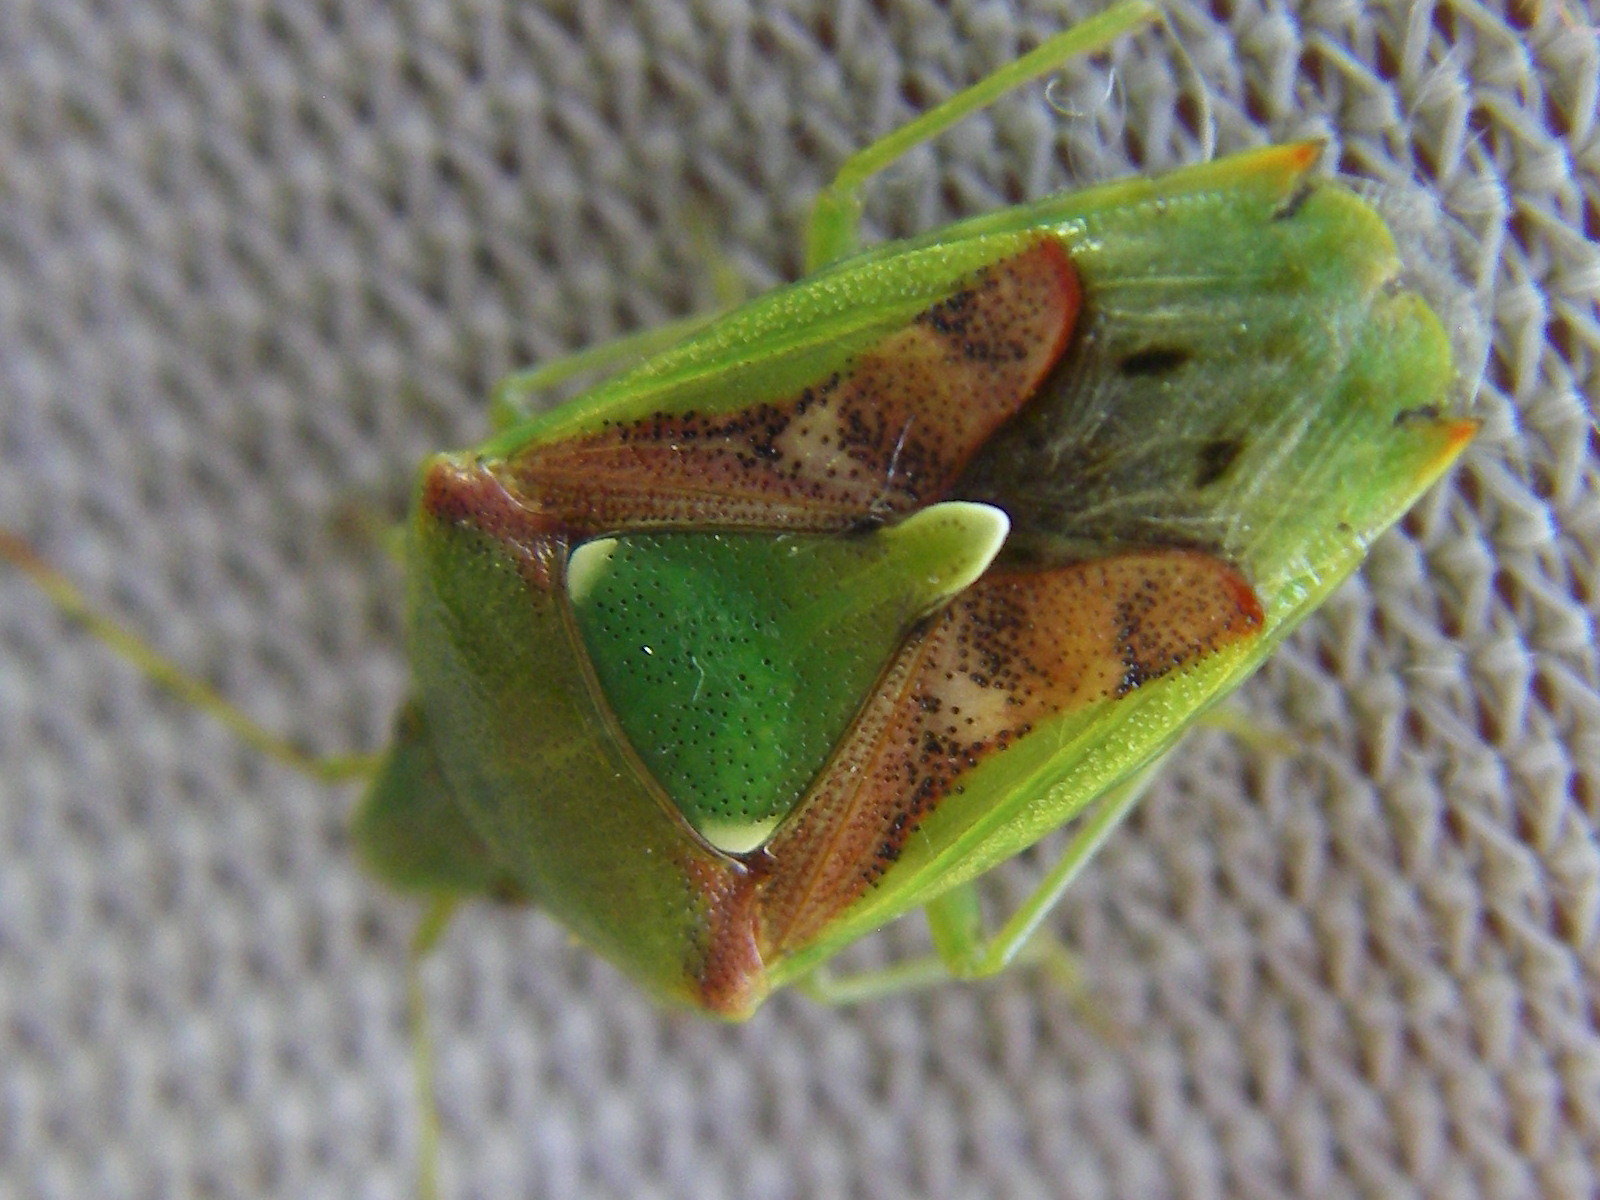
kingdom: Animalia
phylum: Arthropoda
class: Insecta
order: Hemiptera
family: Acanthosomatidae
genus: Cyphostethus
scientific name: Cyphostethus tristriatus
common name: Juniper shieldbug
